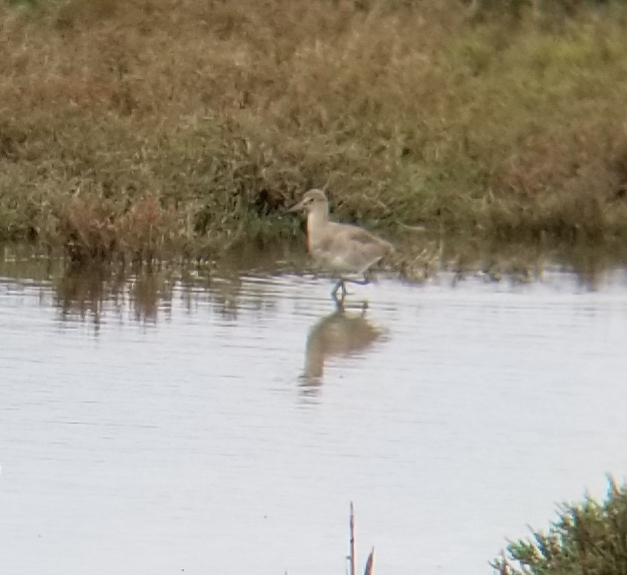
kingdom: Animalia
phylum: Chordata
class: Aves
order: Charadriiformes
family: Scolopacidae
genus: Tringa
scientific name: Tringa semipalmata
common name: Willet
